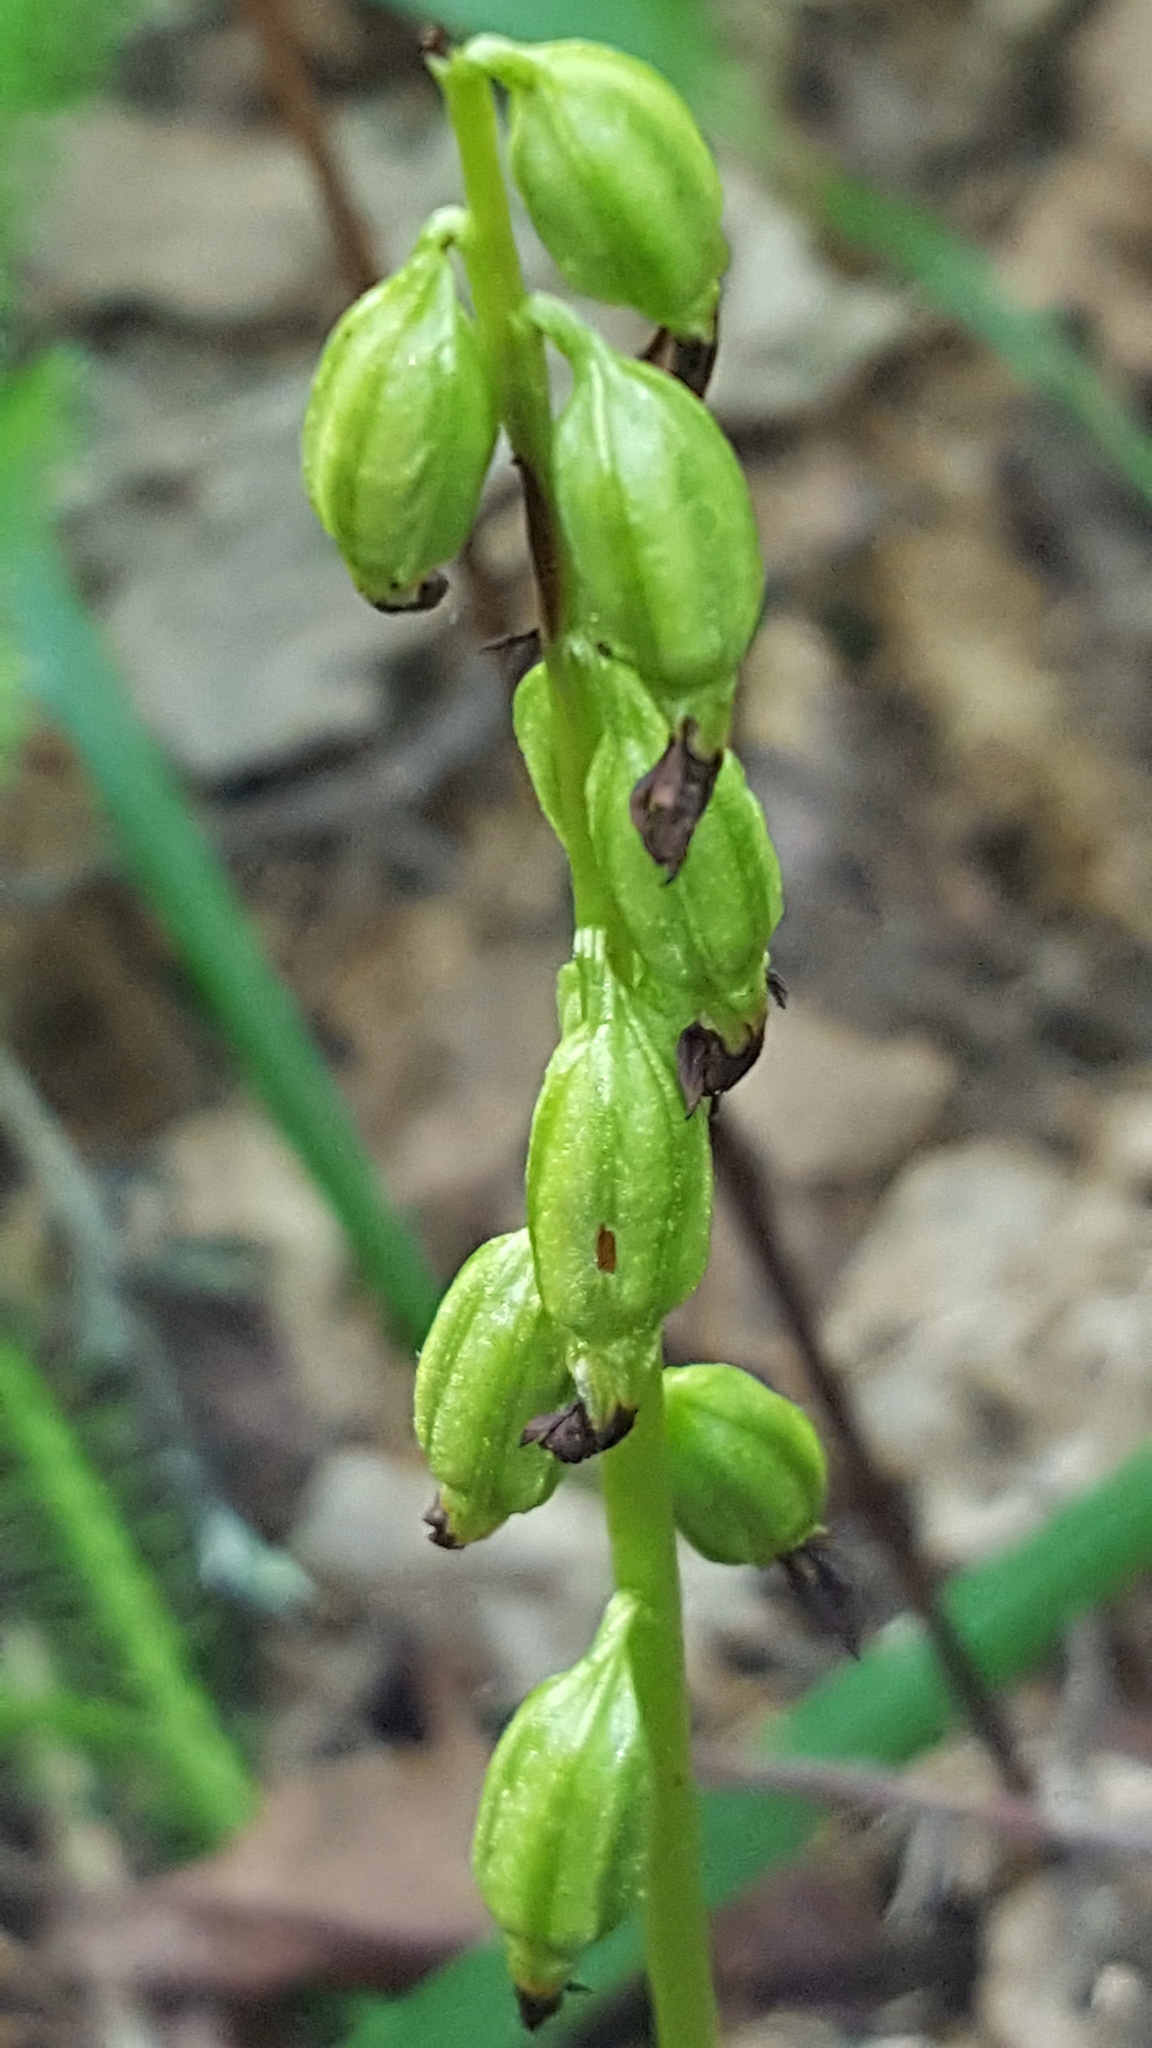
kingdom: Plantae
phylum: Tracheophyta
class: Liliopsida
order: Asparagales
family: Orchidaceae
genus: Corallorhiza
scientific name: Corallorhiza trifida
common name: Yellow coralroot
